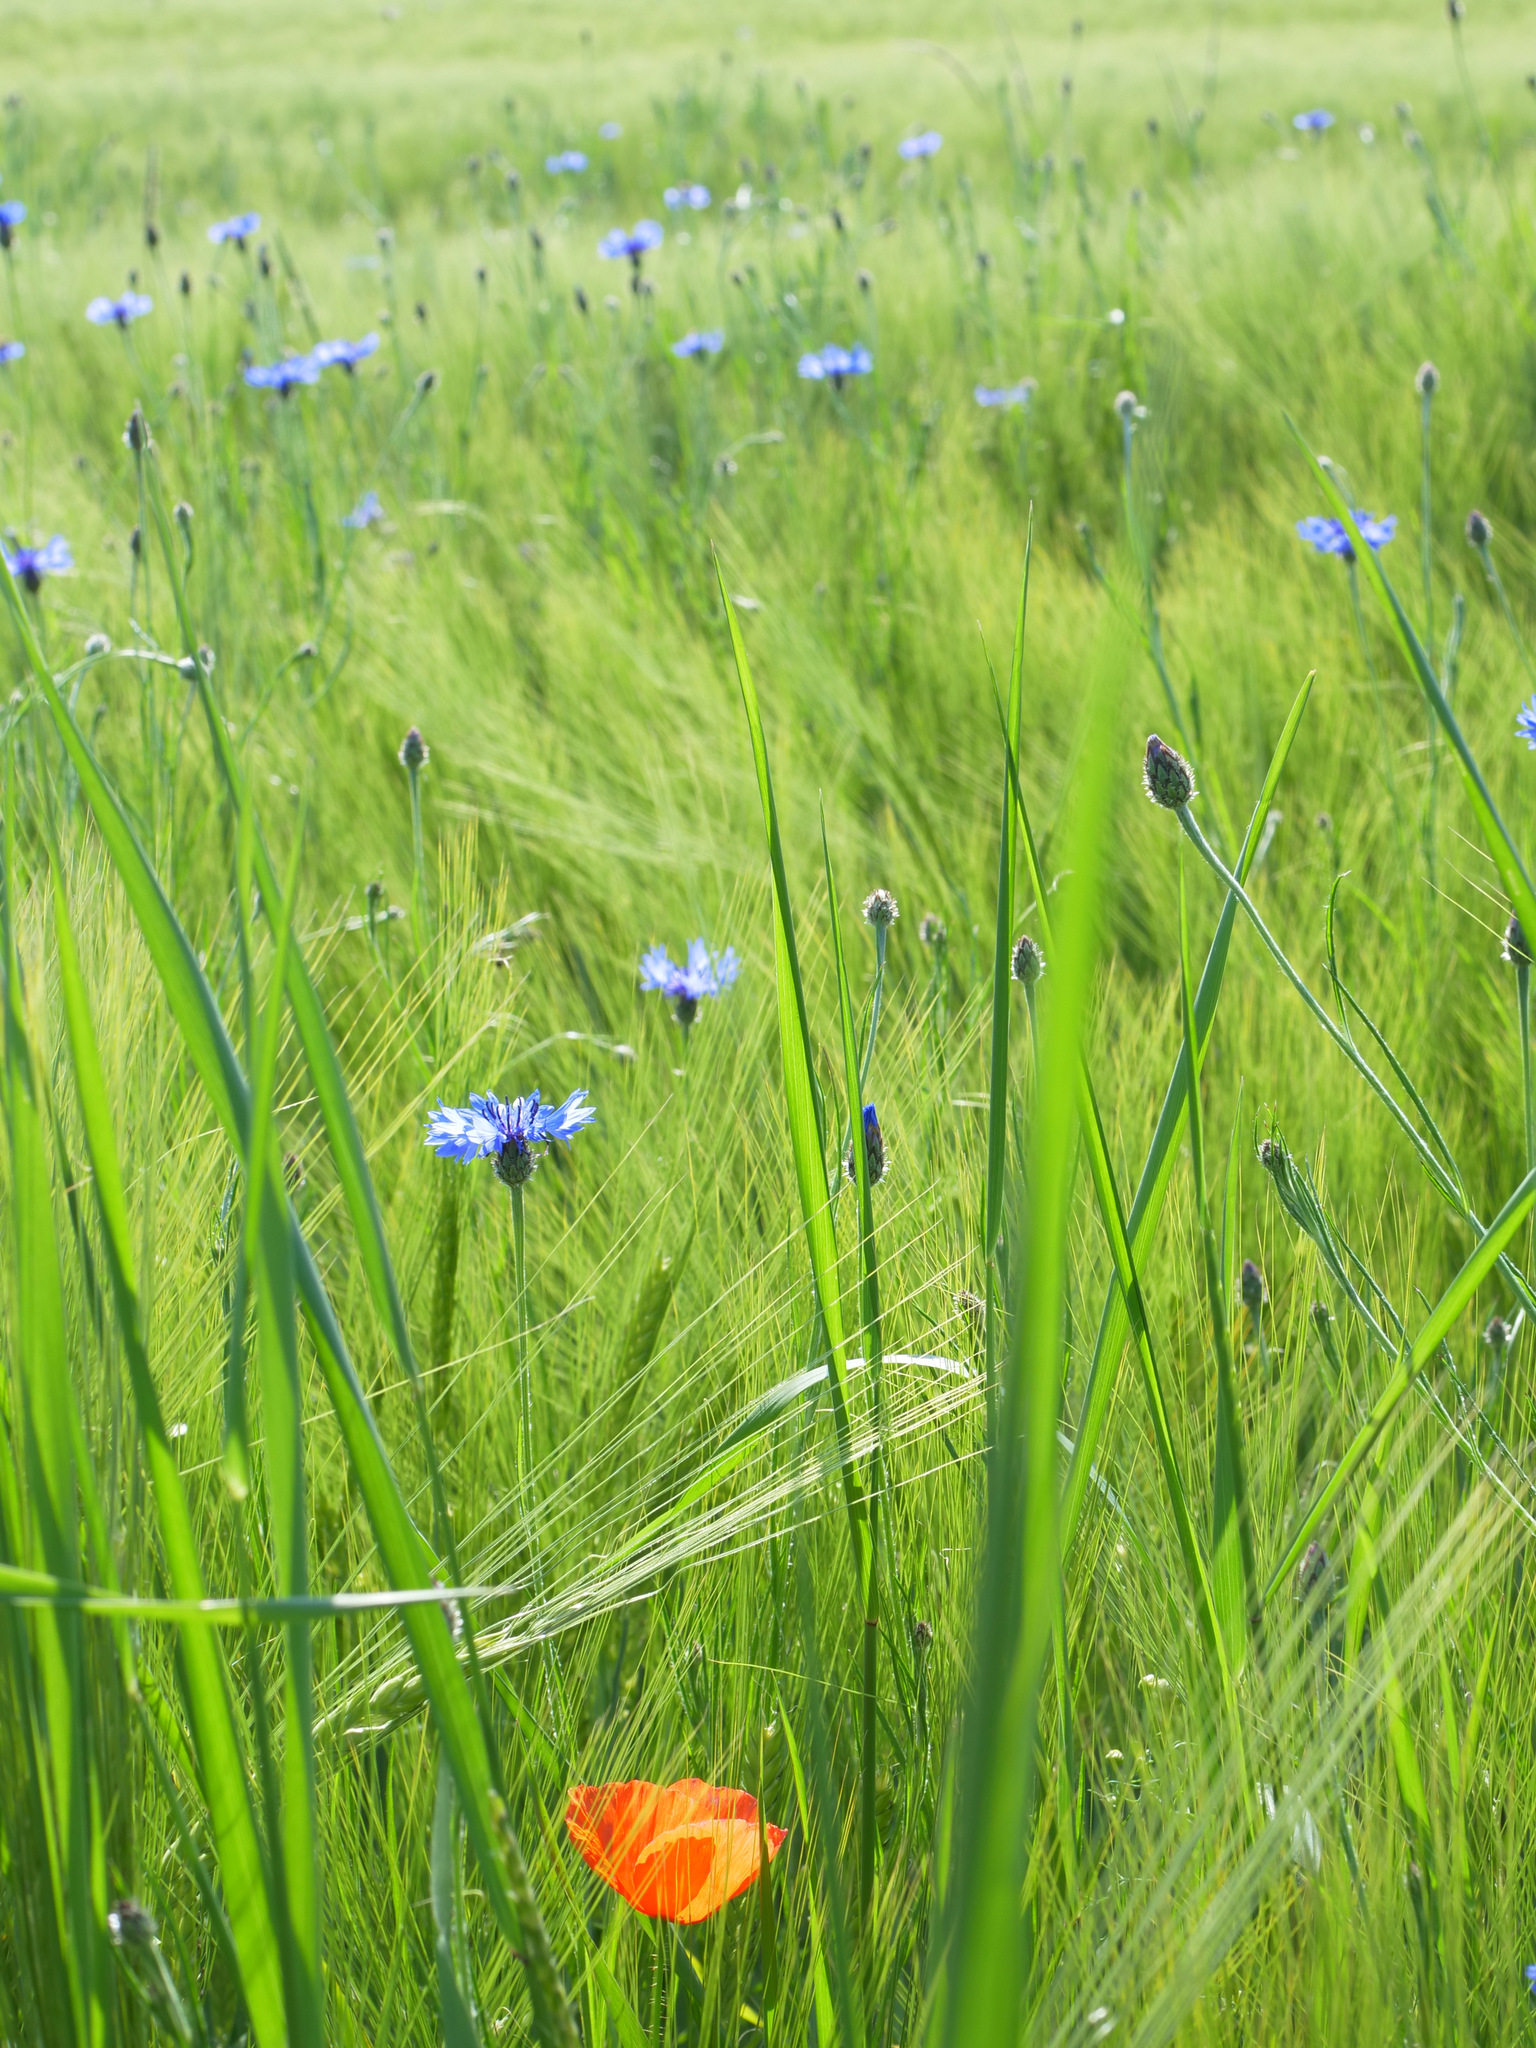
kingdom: Plantae
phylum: Tracheophyta
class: Magnoliopsida
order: Asterales
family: Asteraceae
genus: Centaurea
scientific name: Centaurea cyanus
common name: Cornflower
